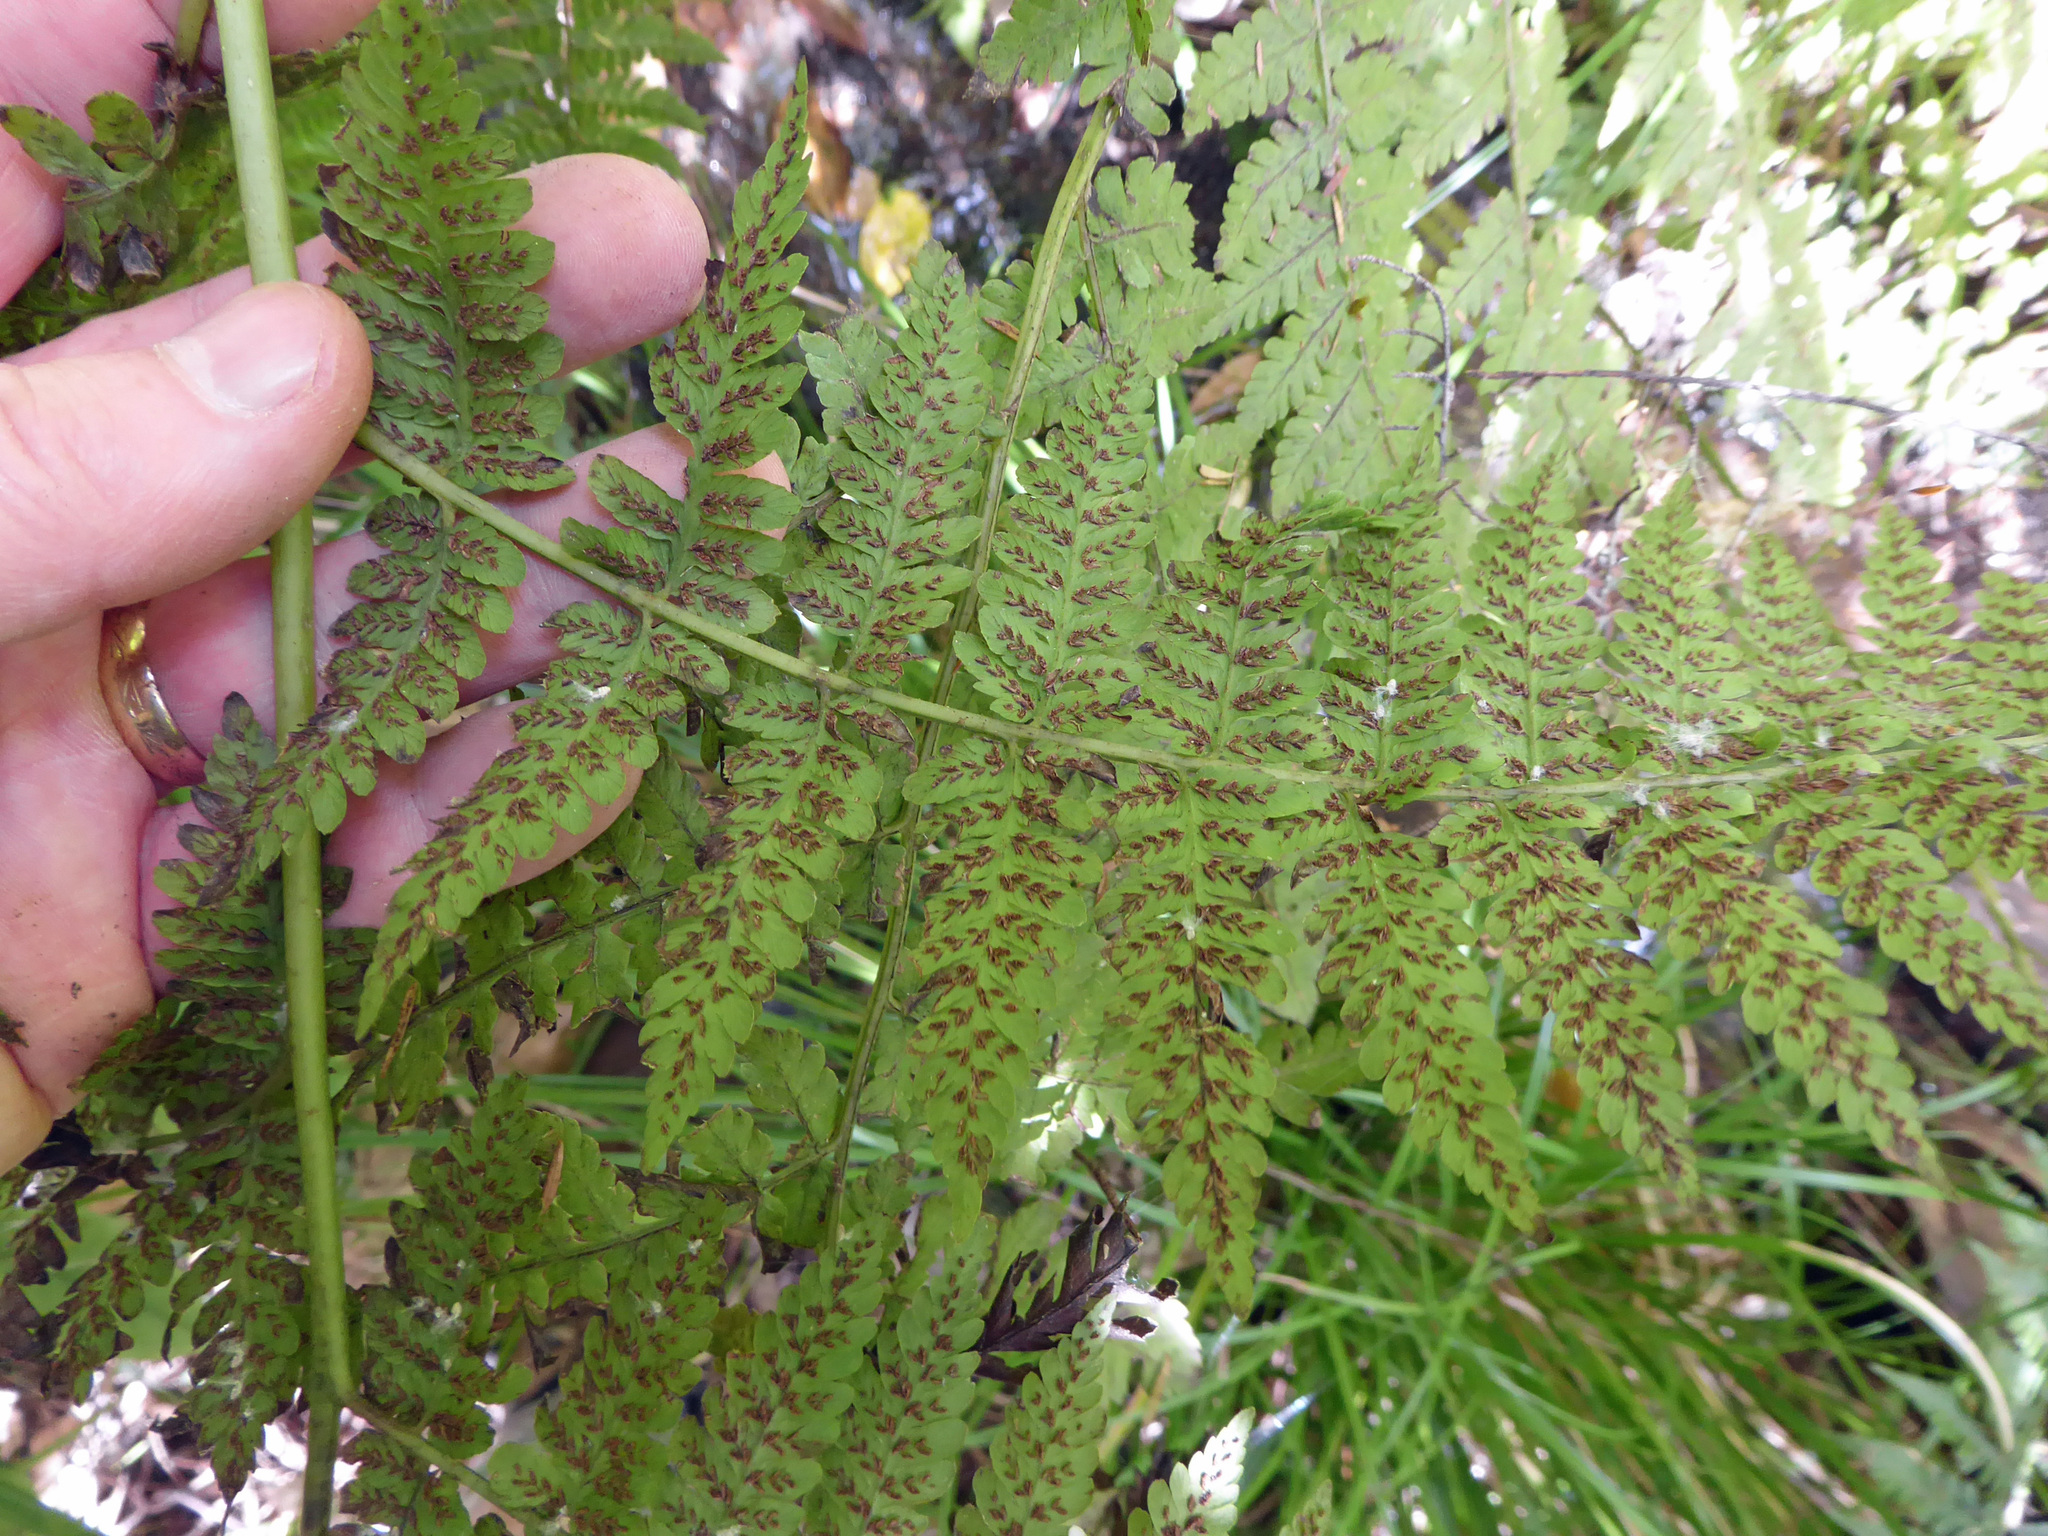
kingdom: Plantae
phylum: Tracheophyta
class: Polypodiopsida
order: Polypodiales
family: Athyriaceae
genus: Diplazium
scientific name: Diplazium australe
